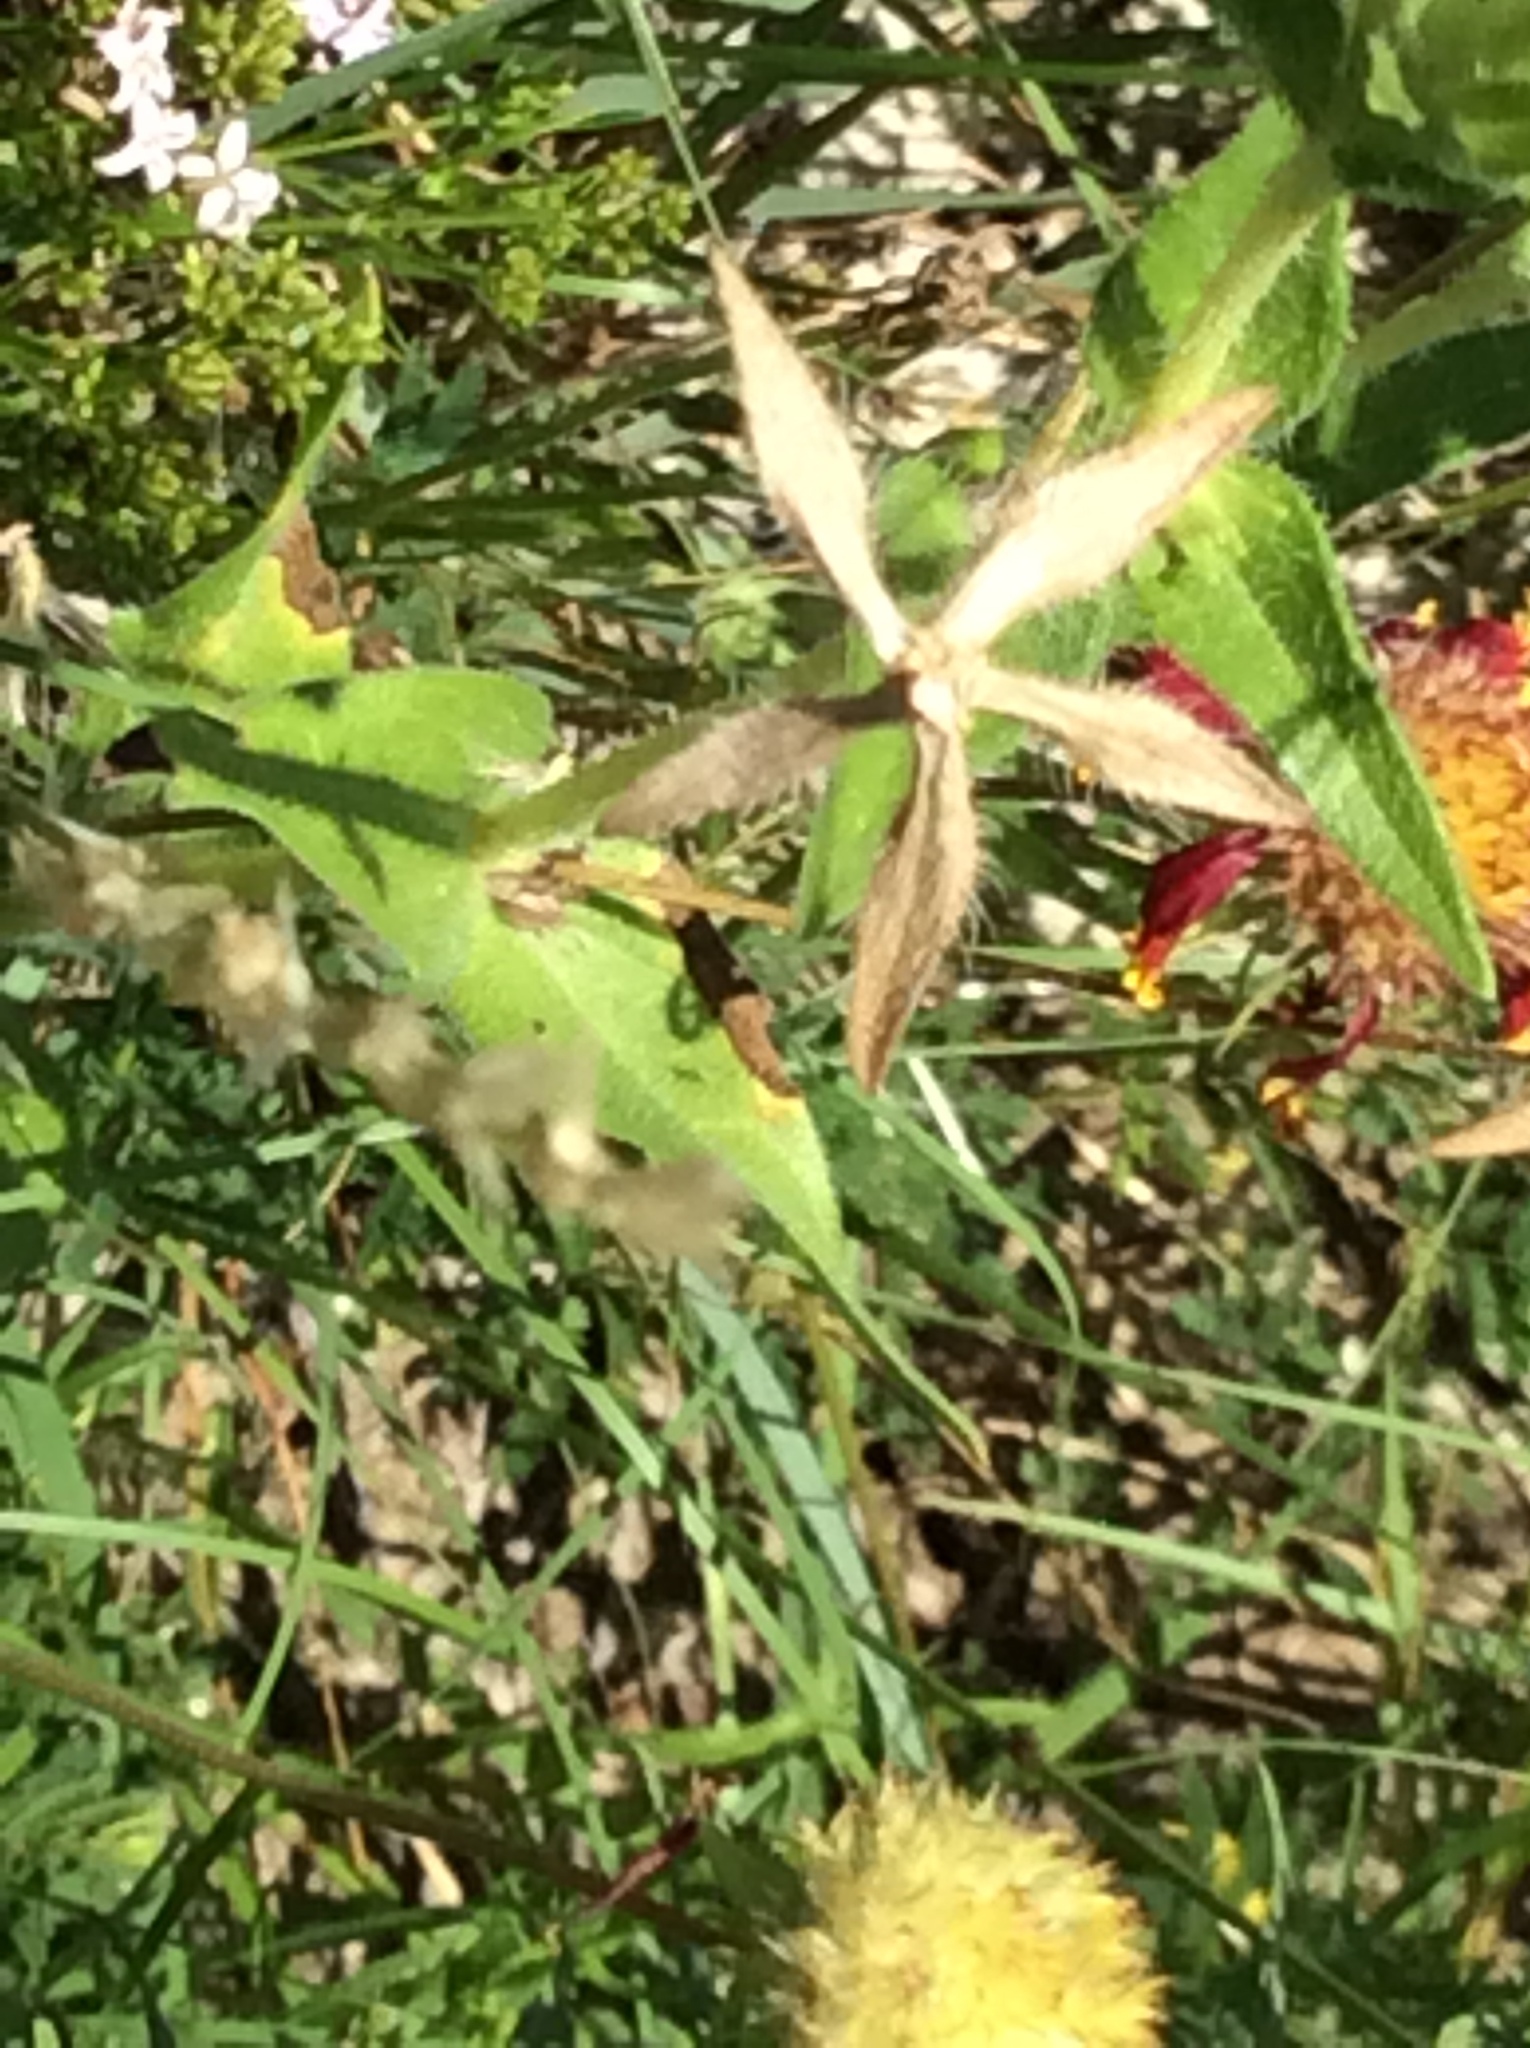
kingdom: Plantae
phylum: Tracheophyta
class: Magnoliopsida
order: Asterales
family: Asteraceae
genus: Lindheimera
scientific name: Lindheimera texana
